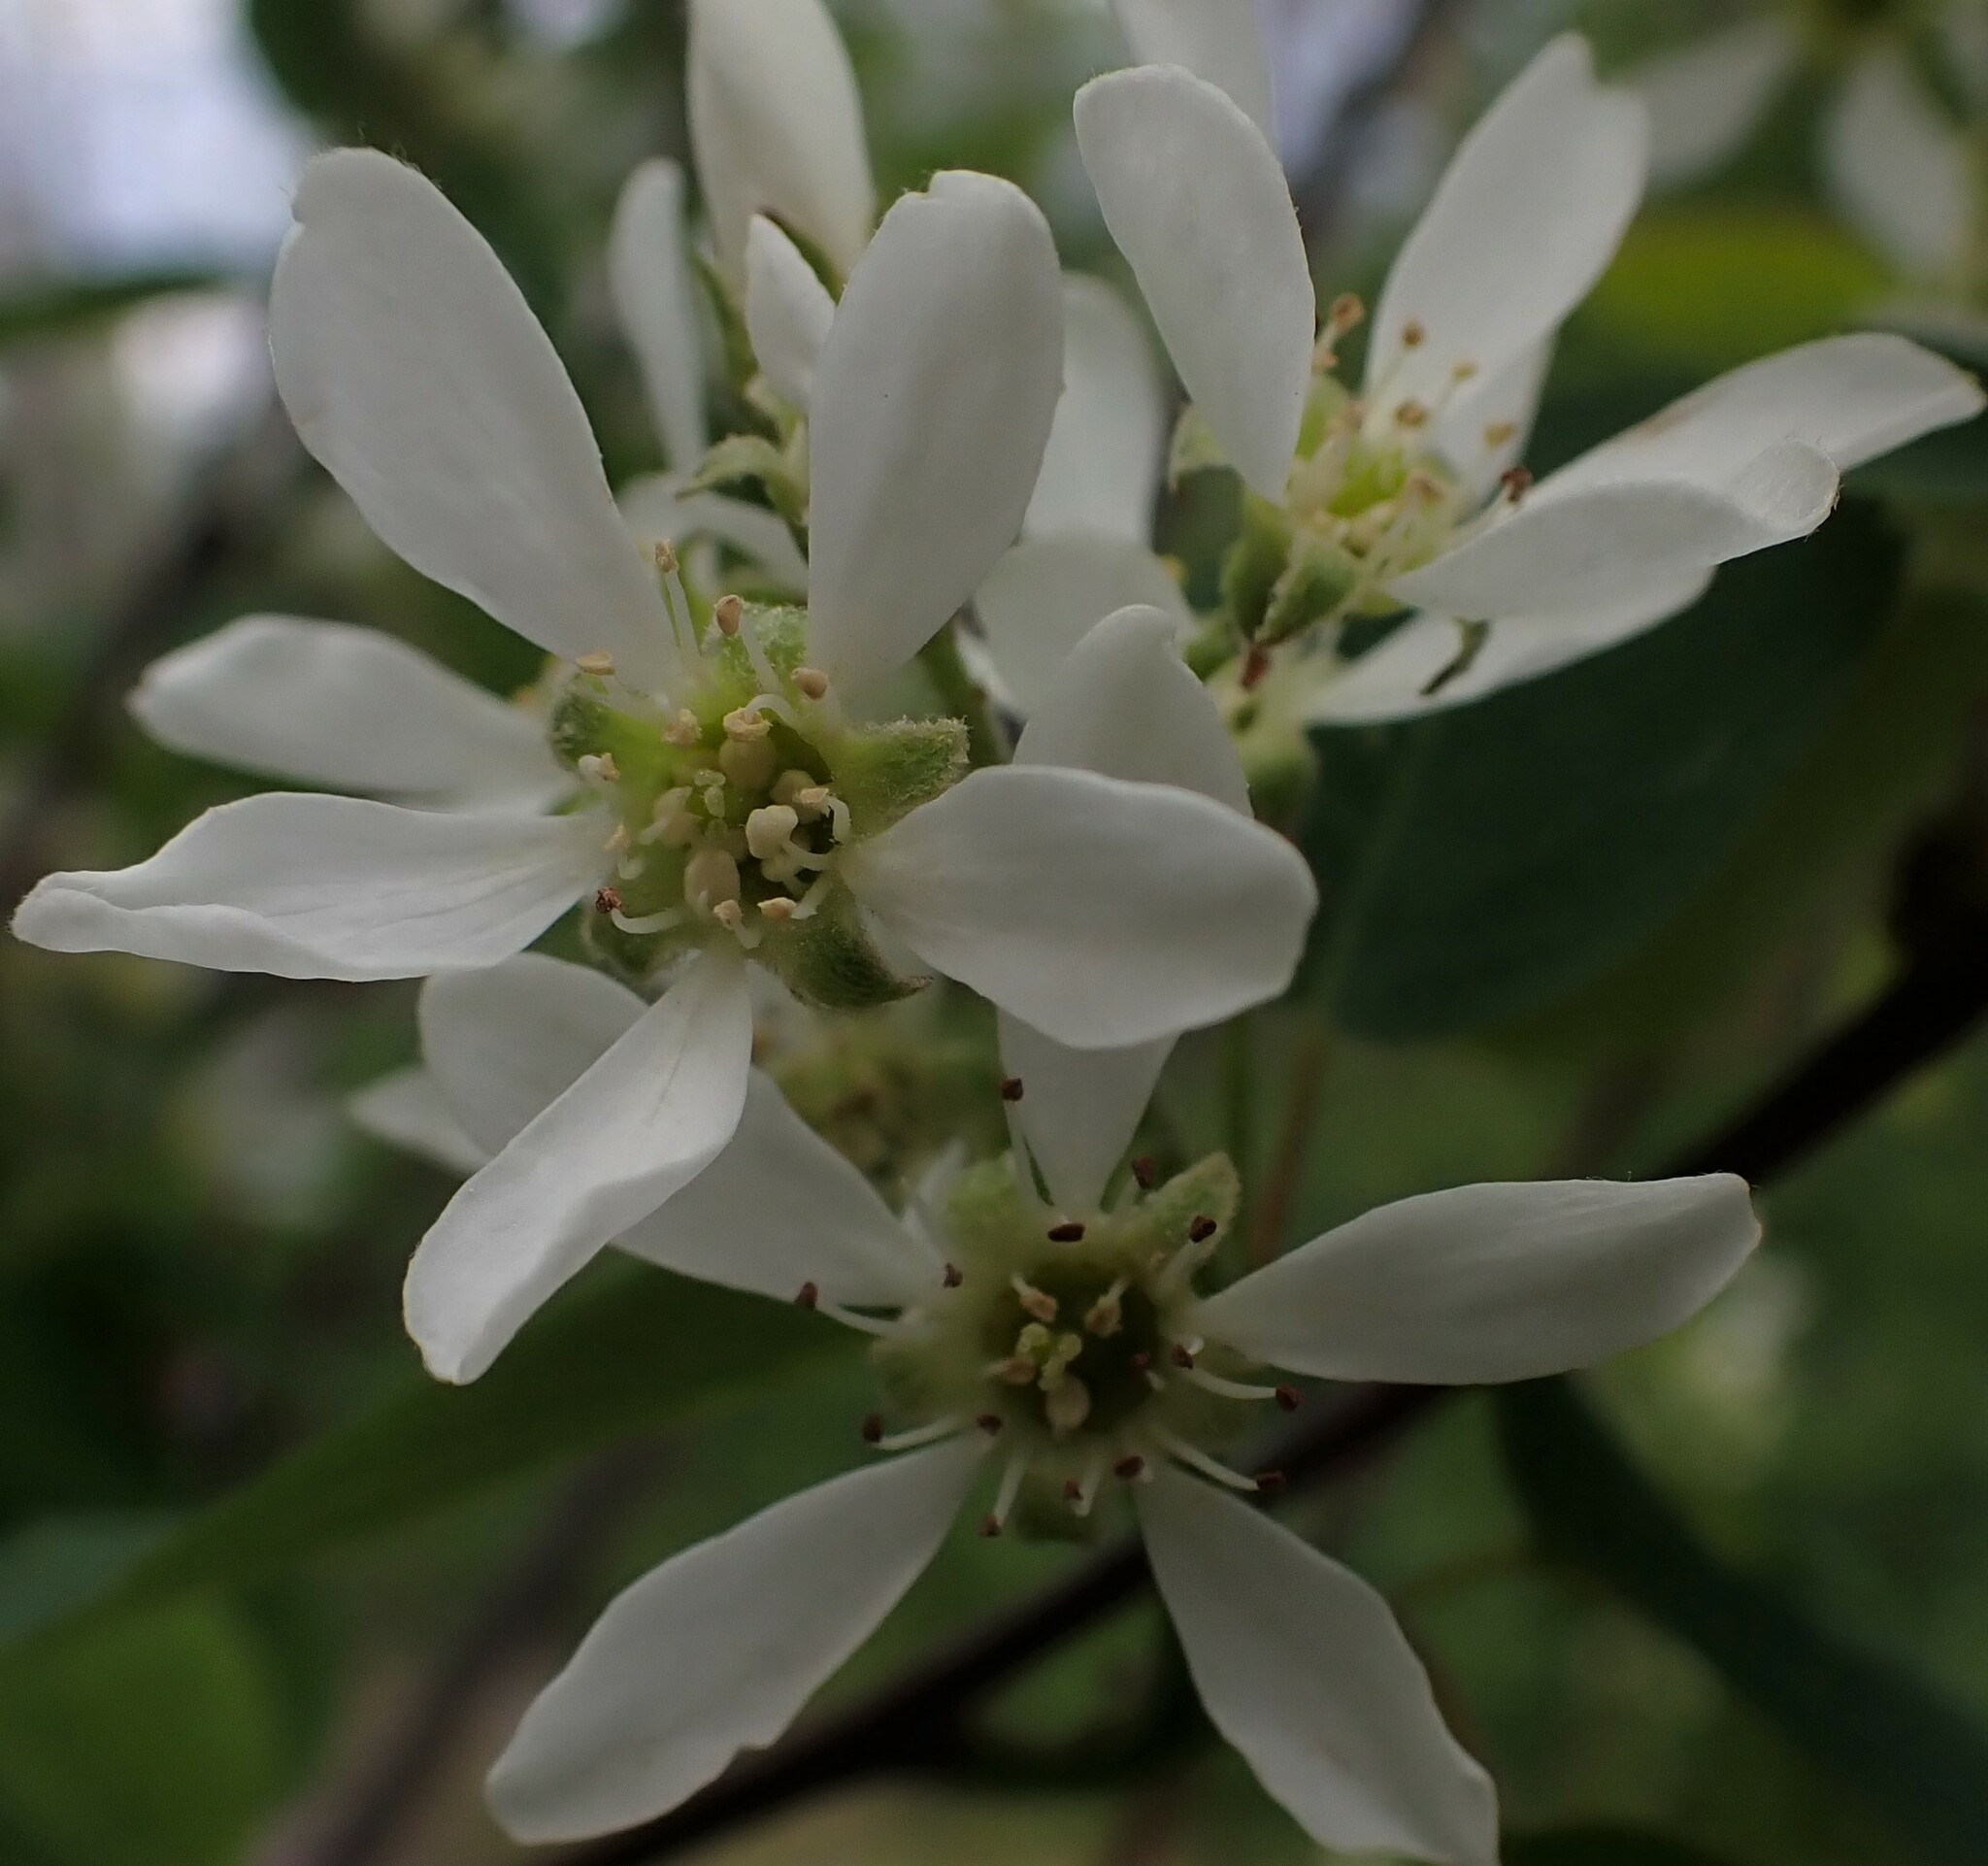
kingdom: Plantae
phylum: Tracheophyta
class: Magnoliopsida
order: Rosales
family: Rosaceae
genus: Amelanchier
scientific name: Amelanchier alnifolia
